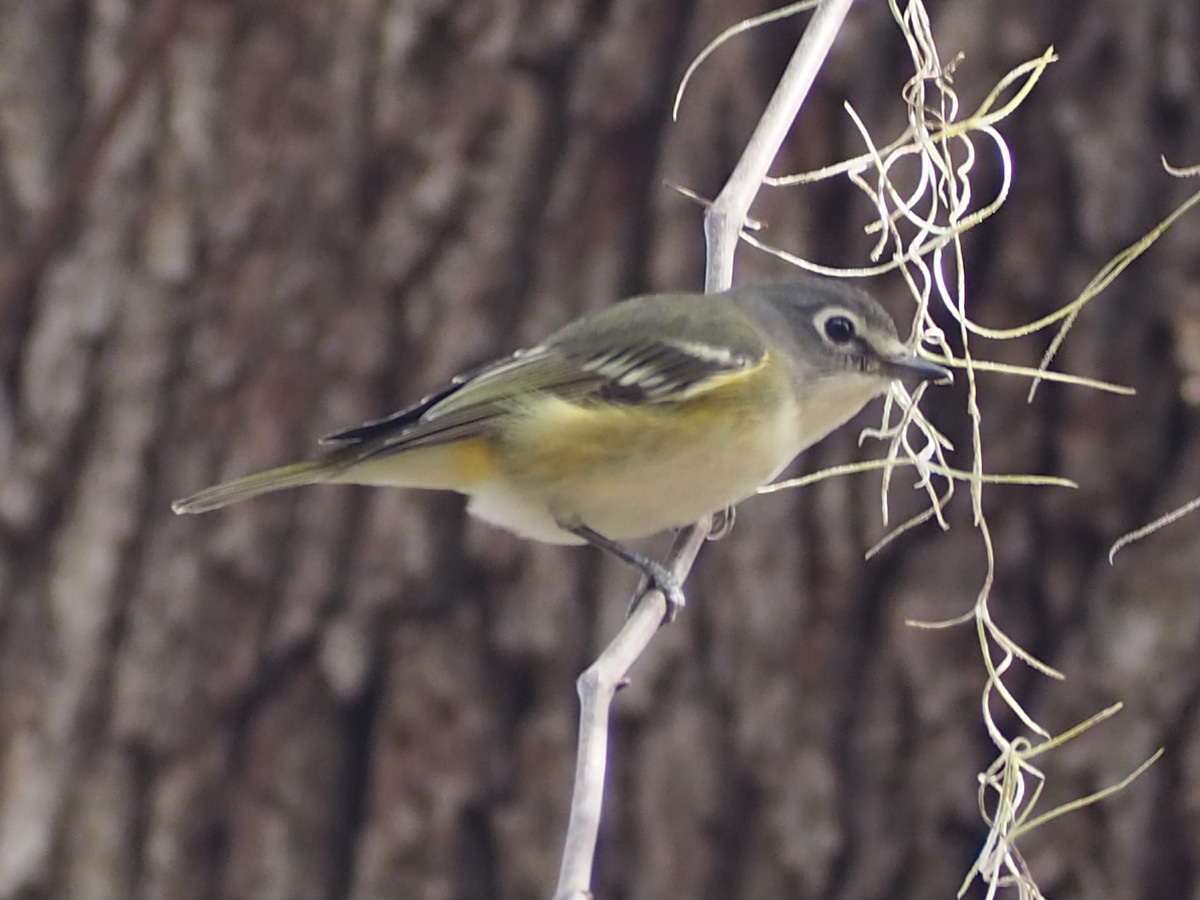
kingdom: Animalia
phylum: Chordata
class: Aves
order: Passeriformes
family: Vireonidae
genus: Vireo
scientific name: Vireo solitarius
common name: Blue-headed vireo
